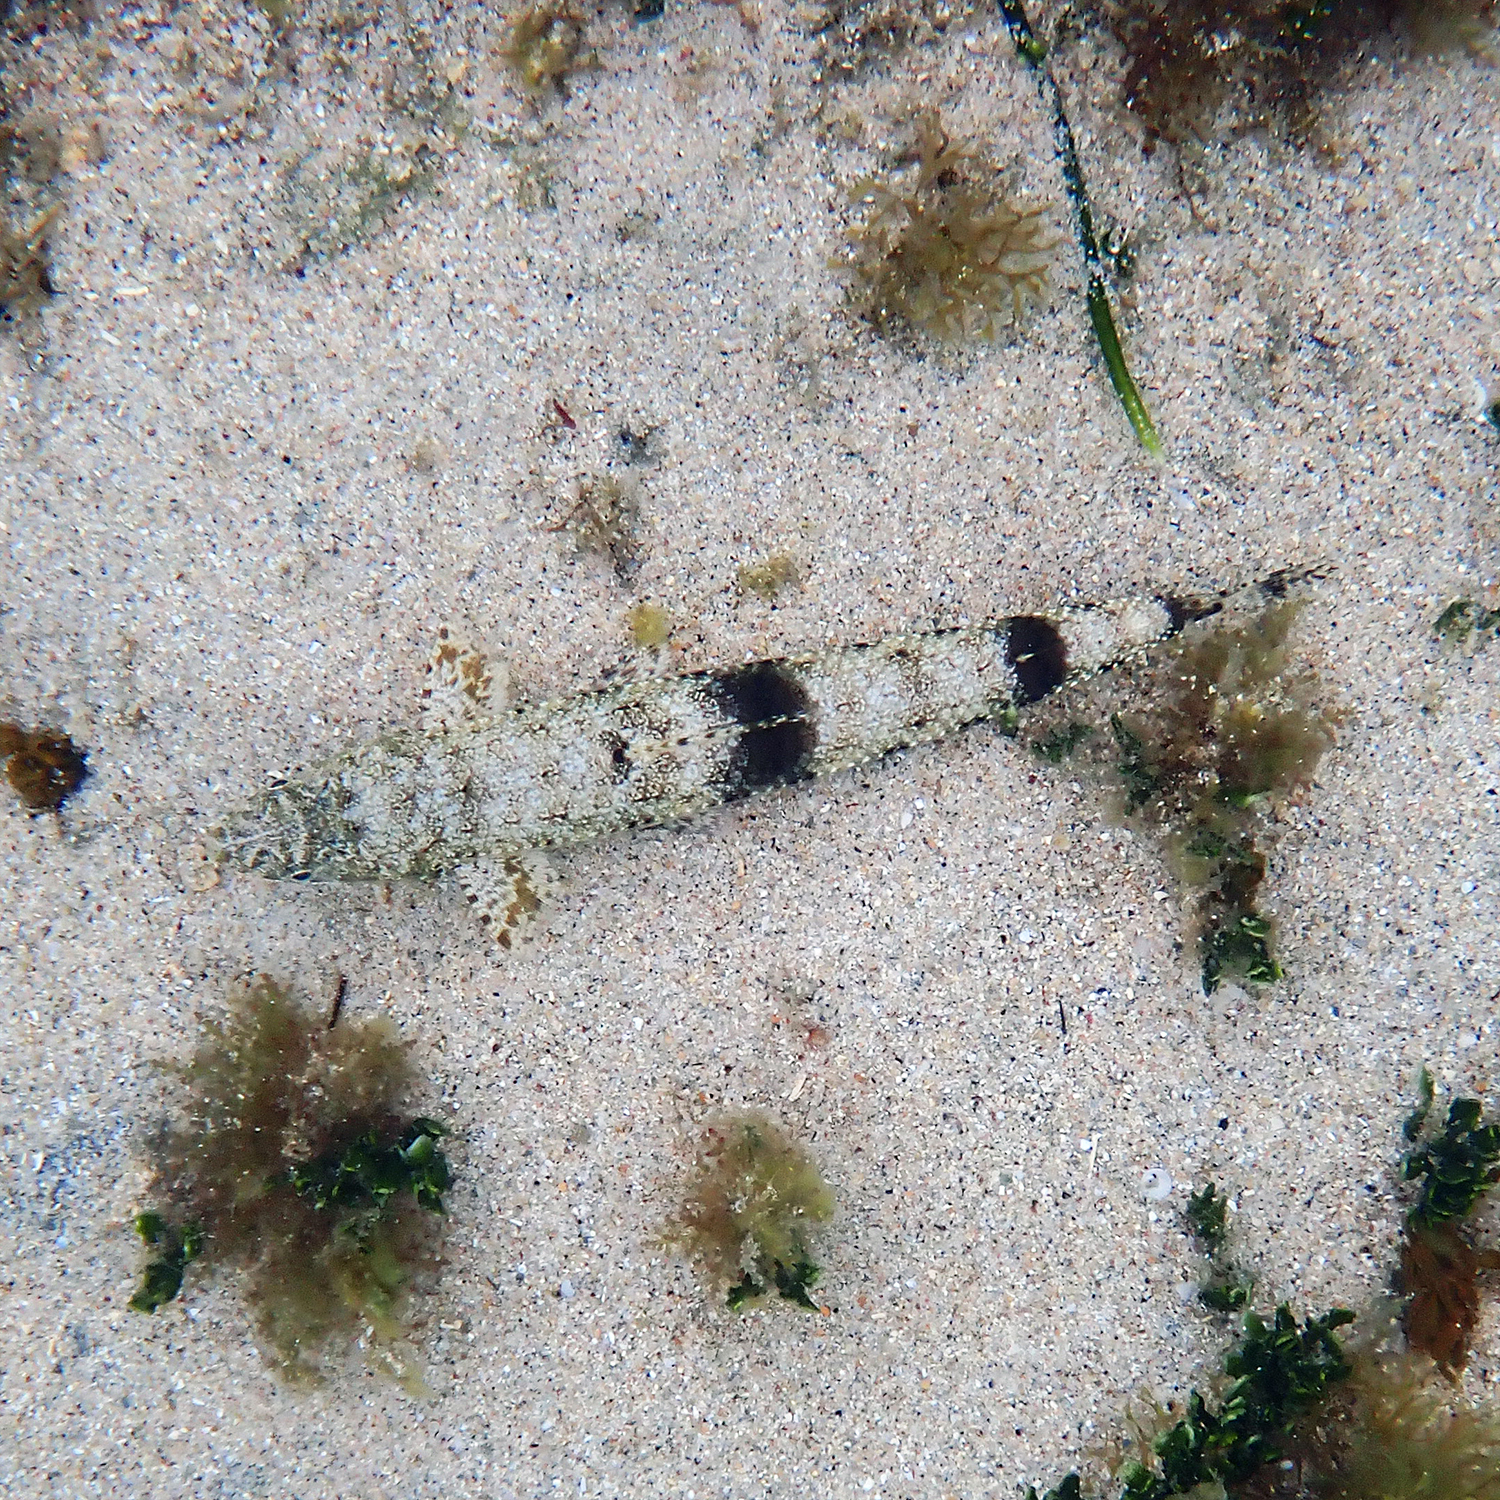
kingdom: Animalia
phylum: Chordata
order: Aulopiformes
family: Synodontidae
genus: Saurida
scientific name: Saurida nebulosa
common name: Nebulous lizardfish
